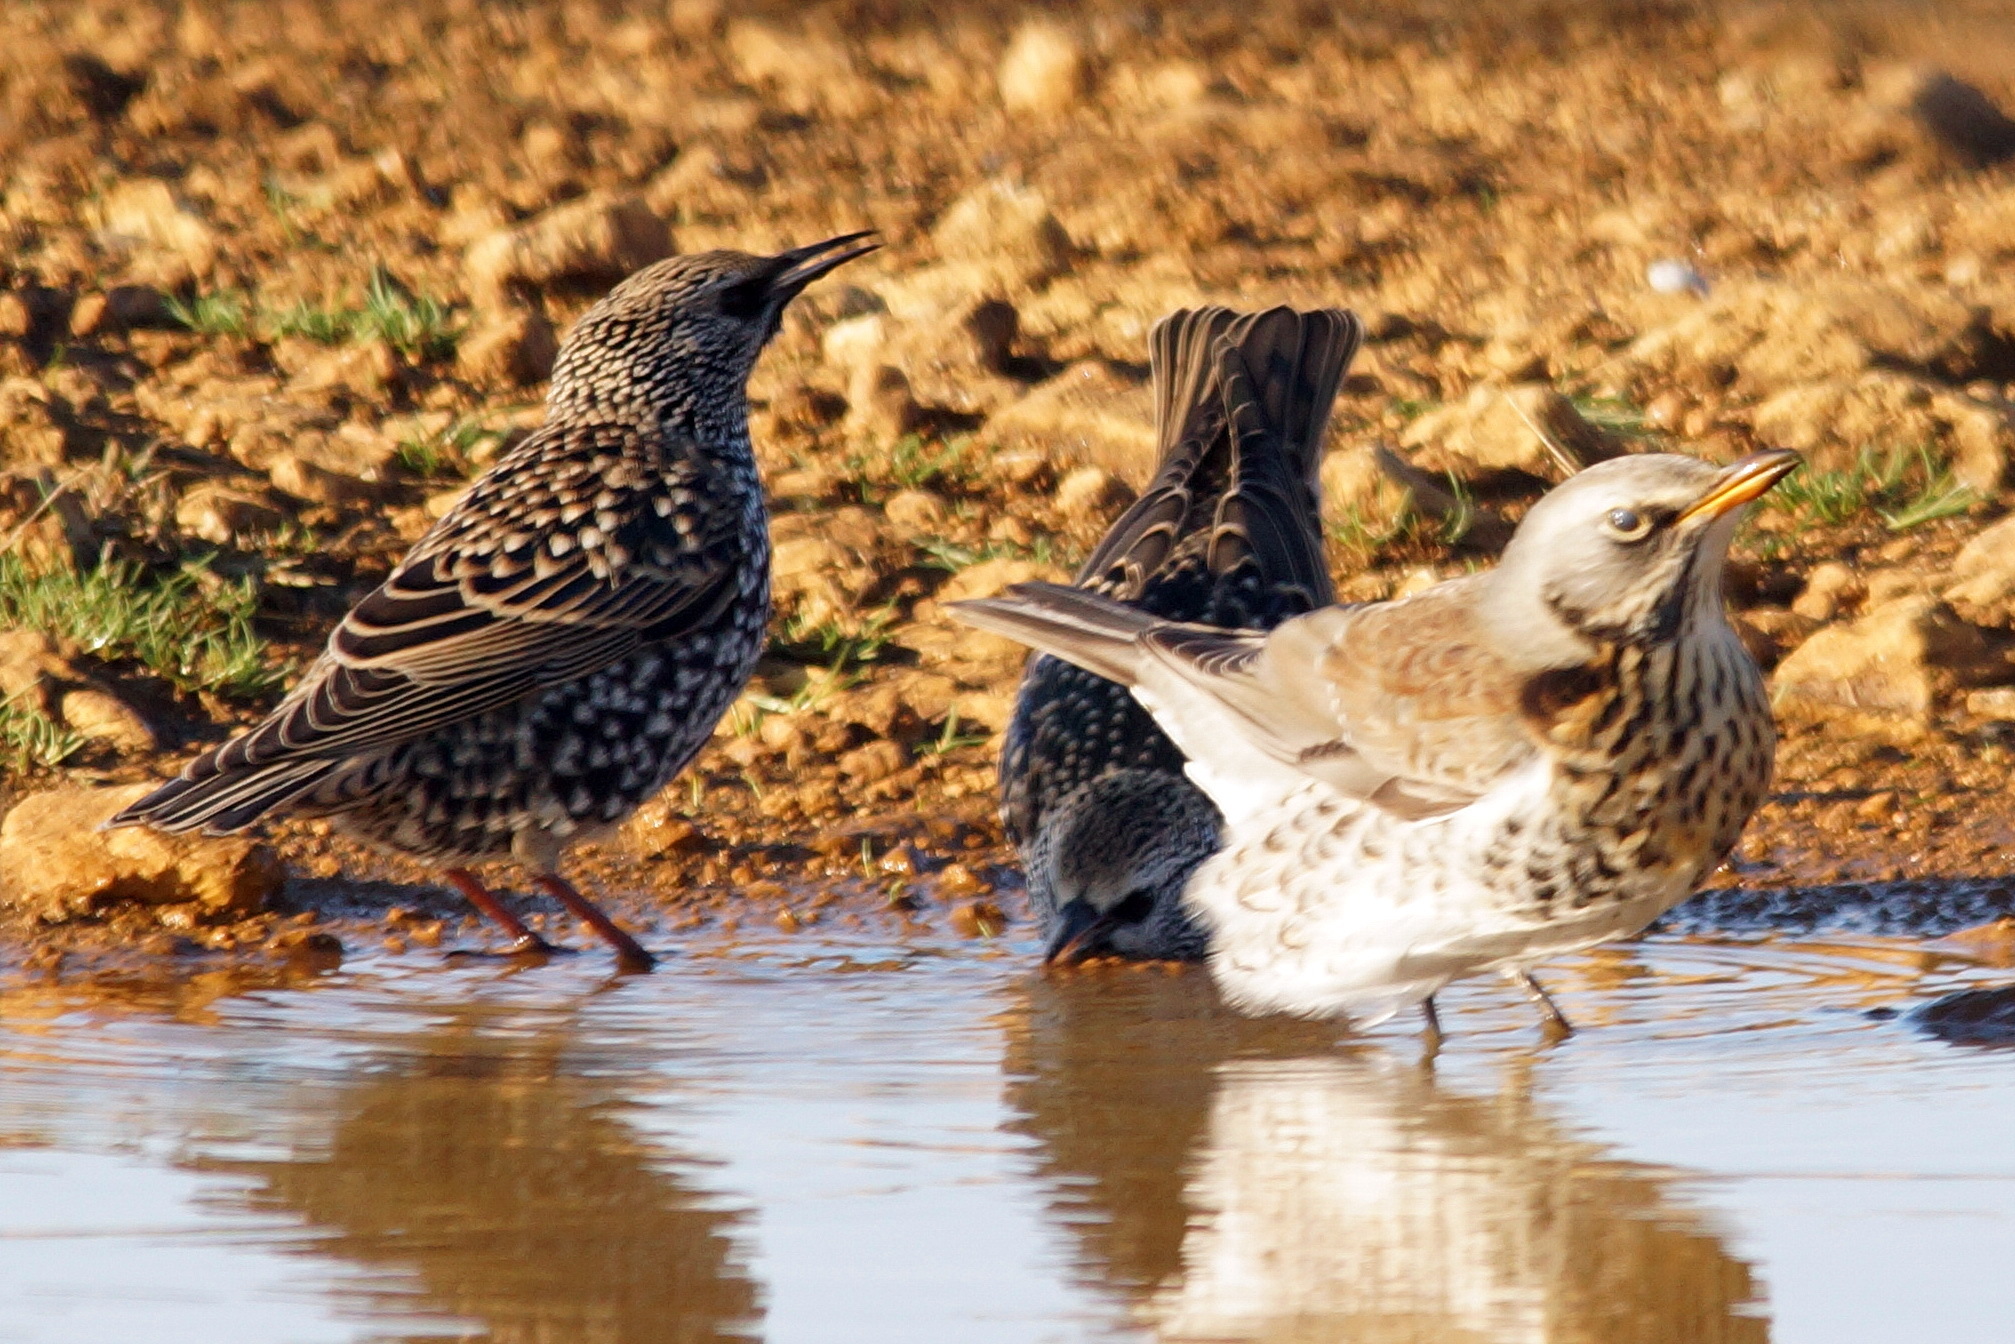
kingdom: Animalia
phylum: Chordata
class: Aves
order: Passeriformes
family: Sturnidae
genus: Sturnus
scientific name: Sturnus vulgaris
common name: Common starling
